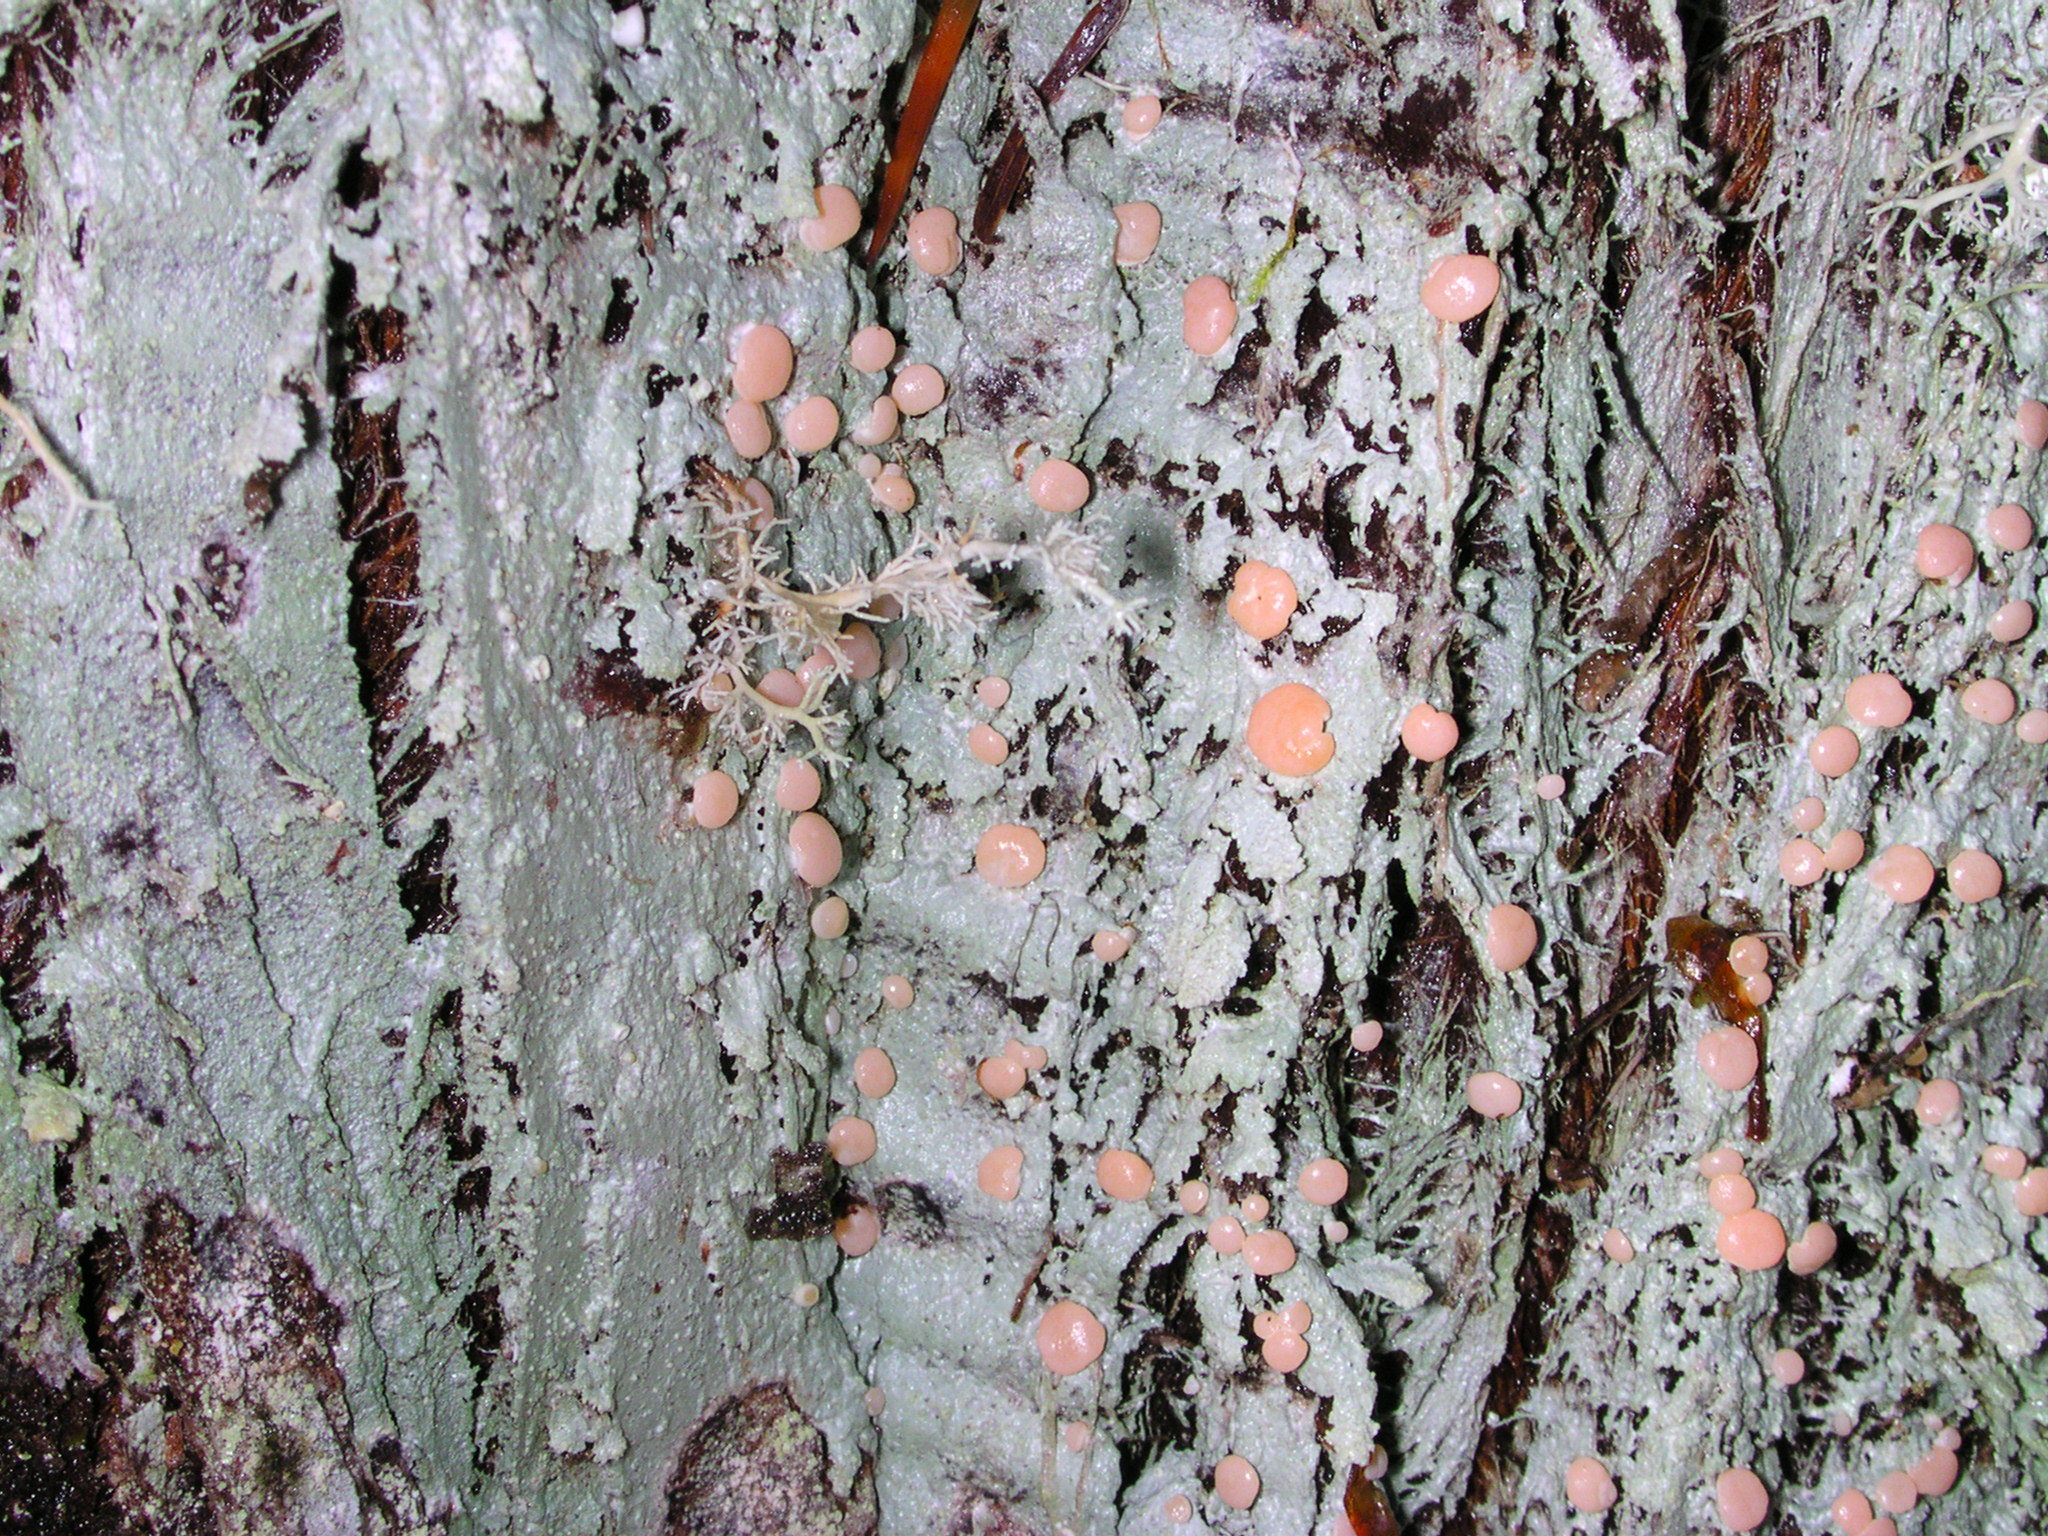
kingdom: Plantae
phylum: Tracheophyta
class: Pinopsida
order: Pinales
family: Cupressaceae
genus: Thuja
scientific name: Thuja plicata
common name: Western red-cedar
